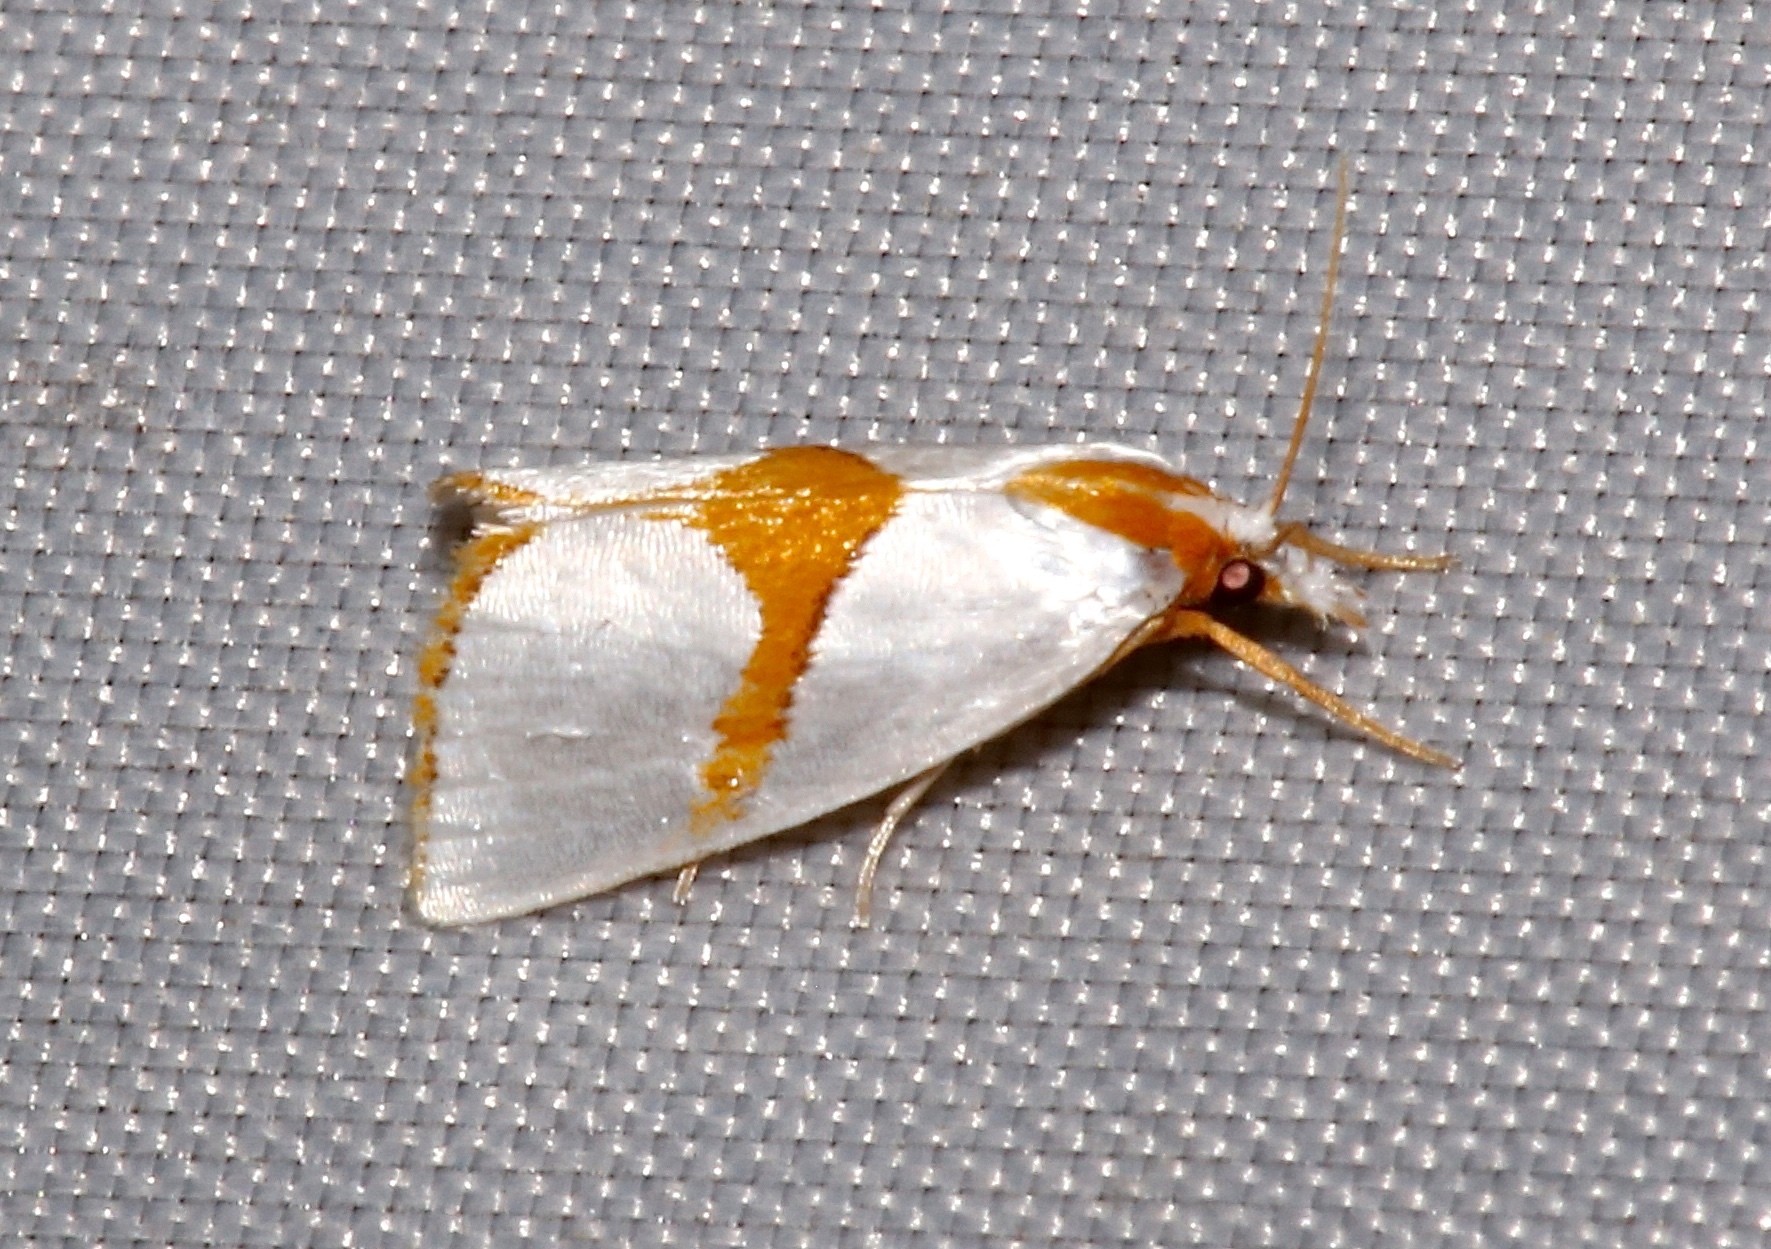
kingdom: Animalia
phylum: Arthropoda
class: Insecta
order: Lepidoptera
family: Crambidae
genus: Argyria
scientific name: Argyria auratella
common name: Curve-lined argyria moth
